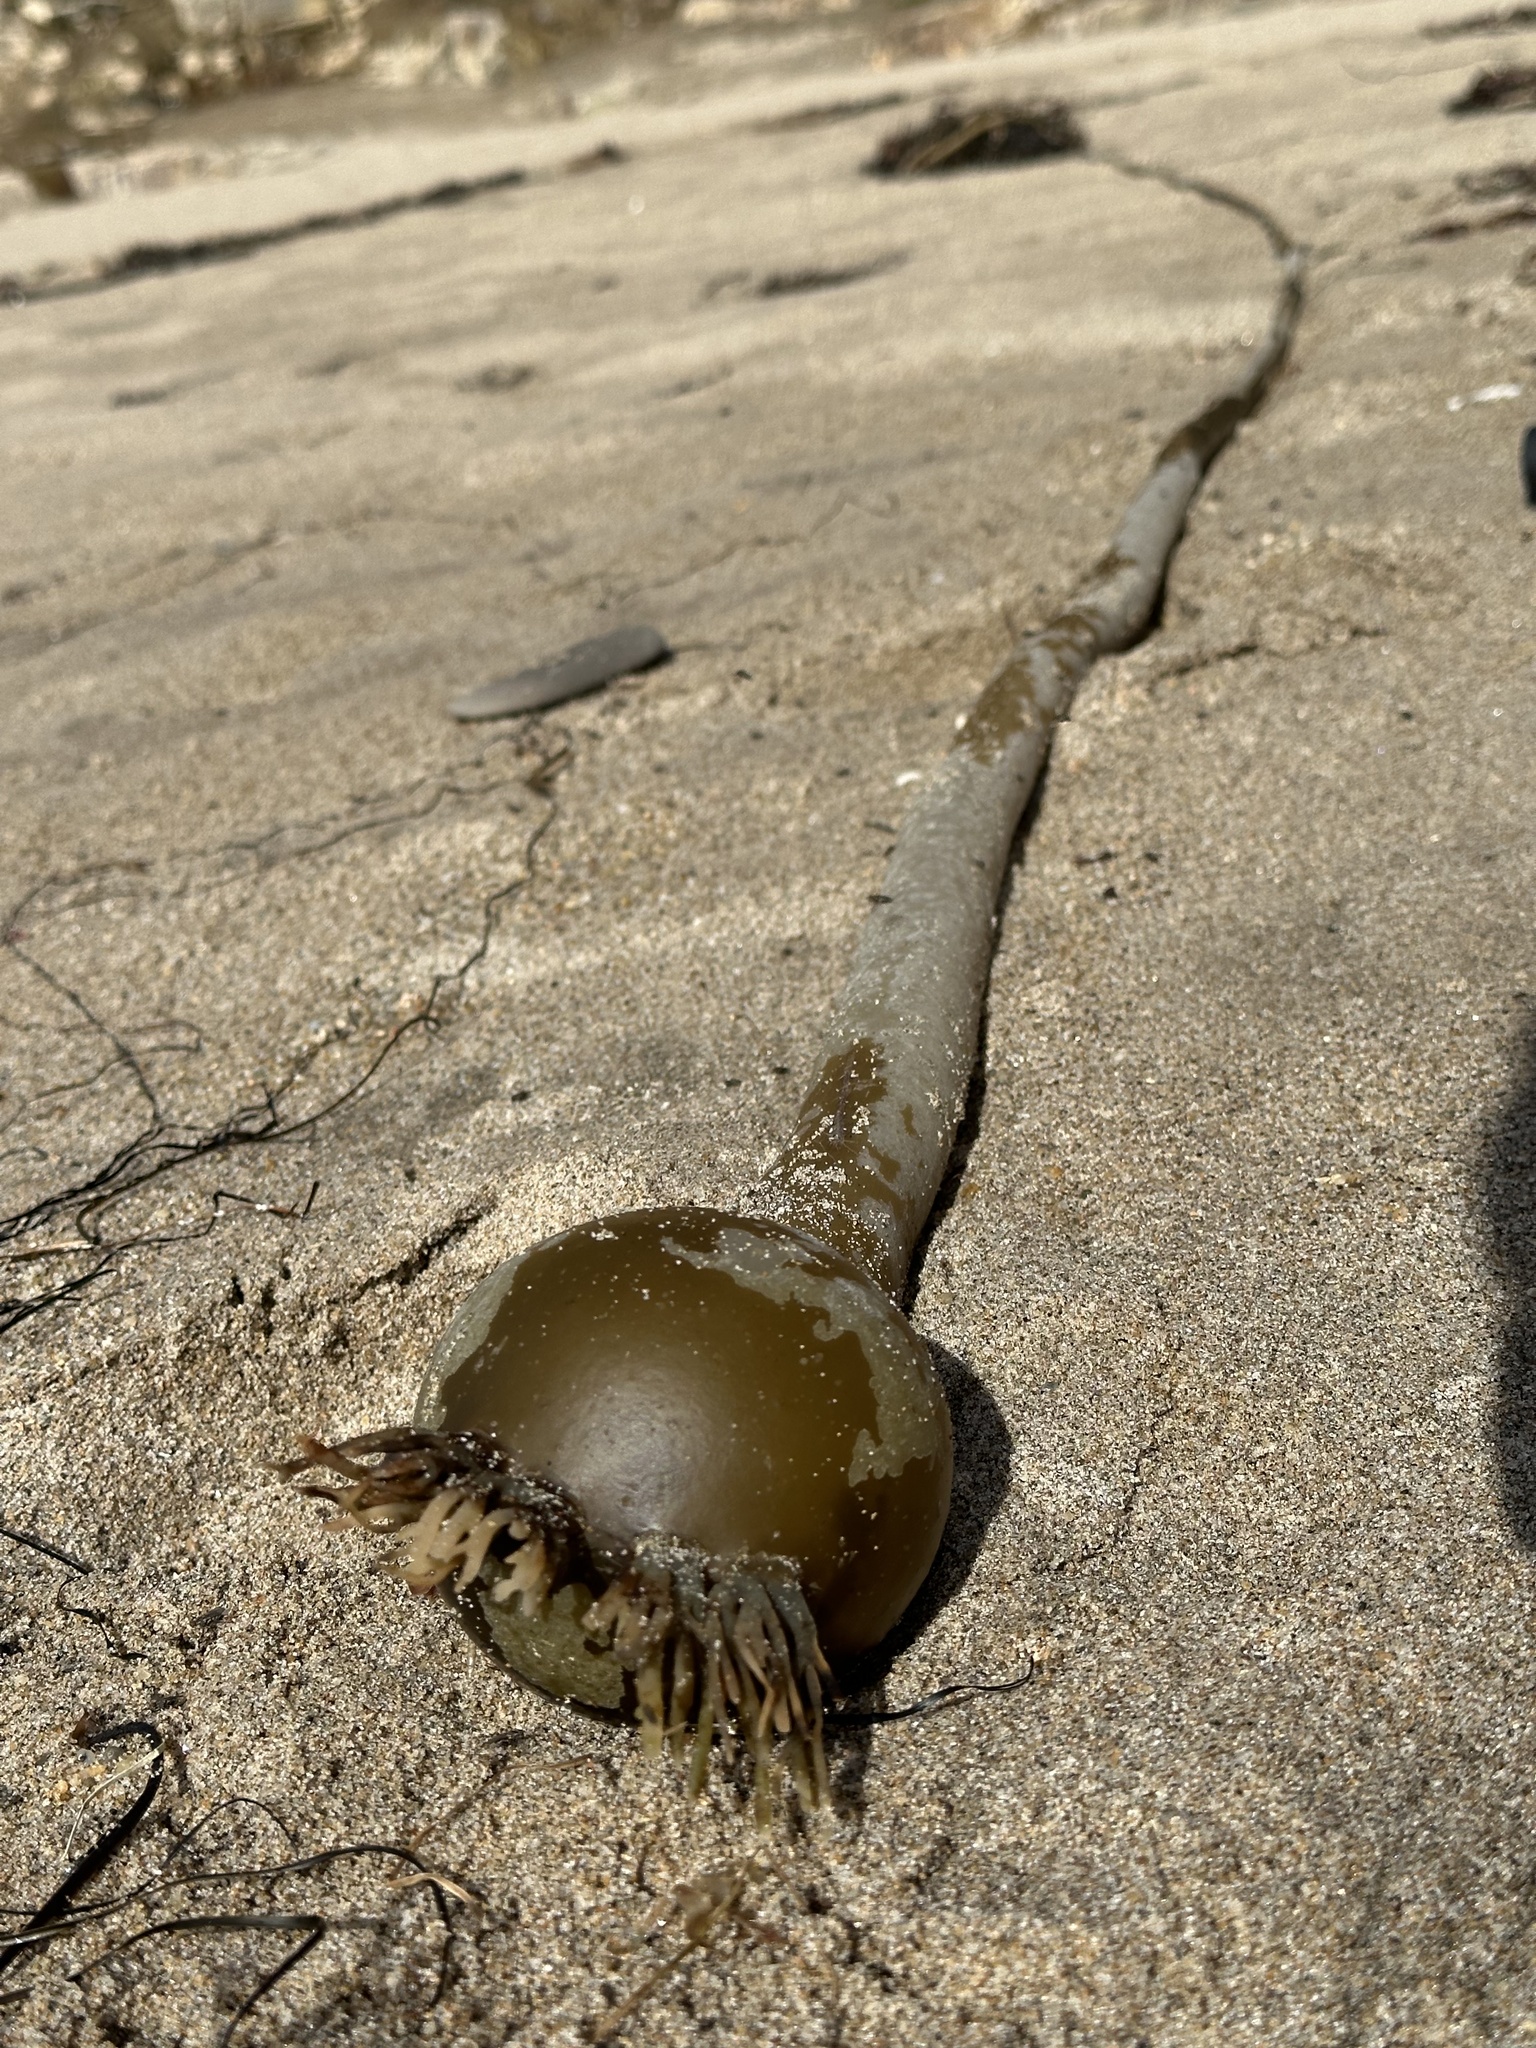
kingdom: Chromista
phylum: Ochrophyta
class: Phaeophyceae
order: Laminariales
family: Laminariaceae
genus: Nereocystis
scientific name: Nereocystis luetkeana
